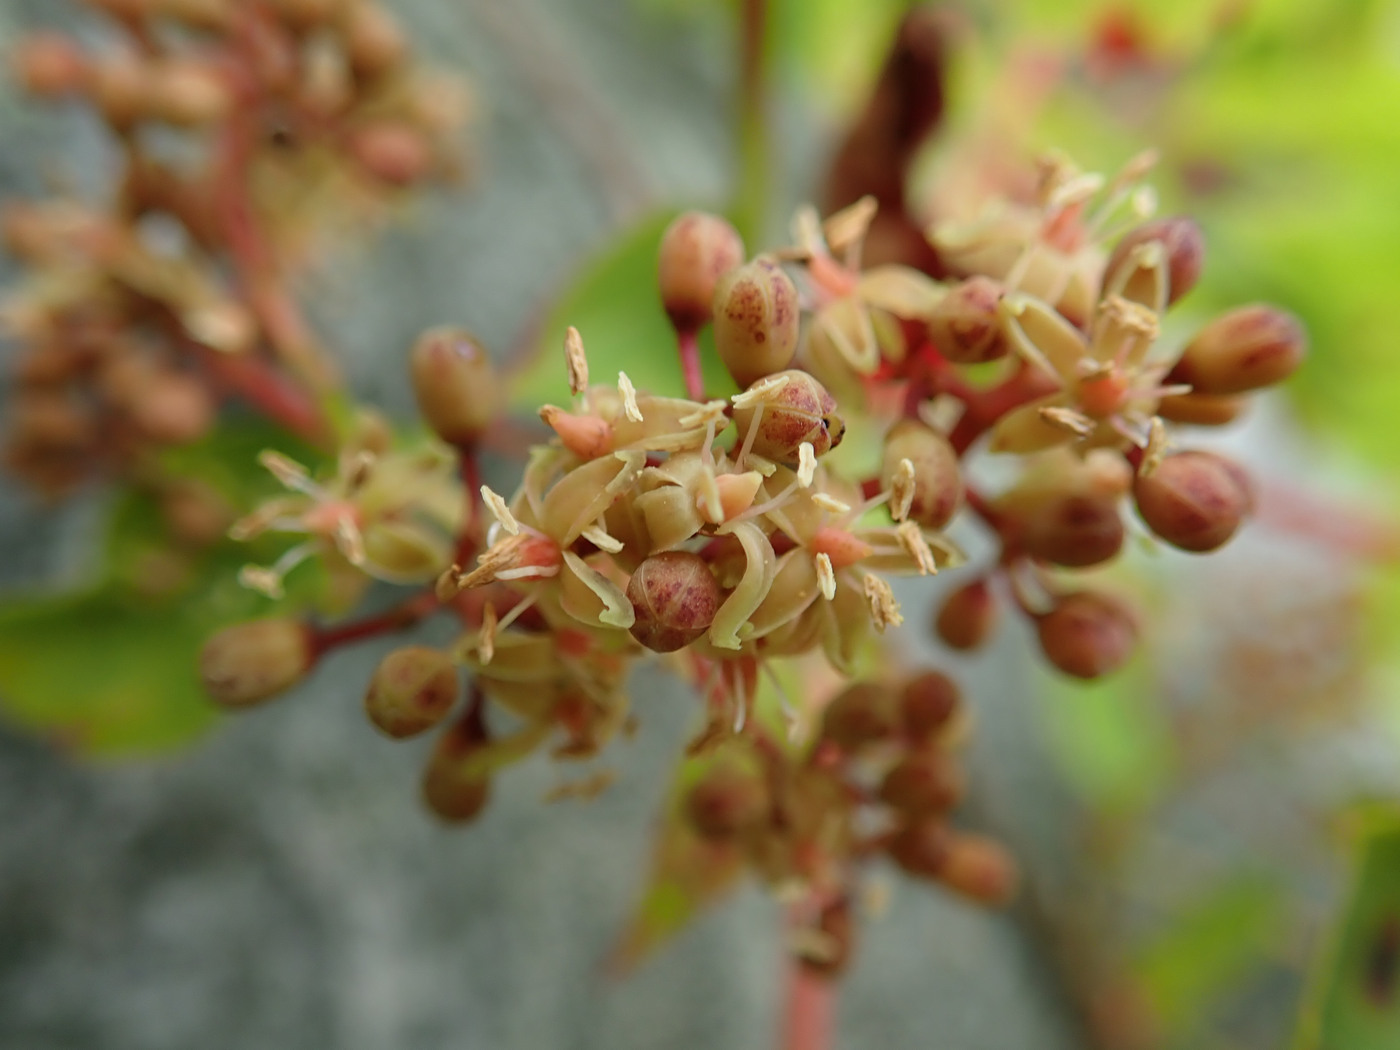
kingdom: Plantae
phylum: Tracheophyta
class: Magnoliopsida
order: Vitales
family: Vitaceae
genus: Parthenocissus
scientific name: Parthenocissus quinquefolia
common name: Virginia-creeper
